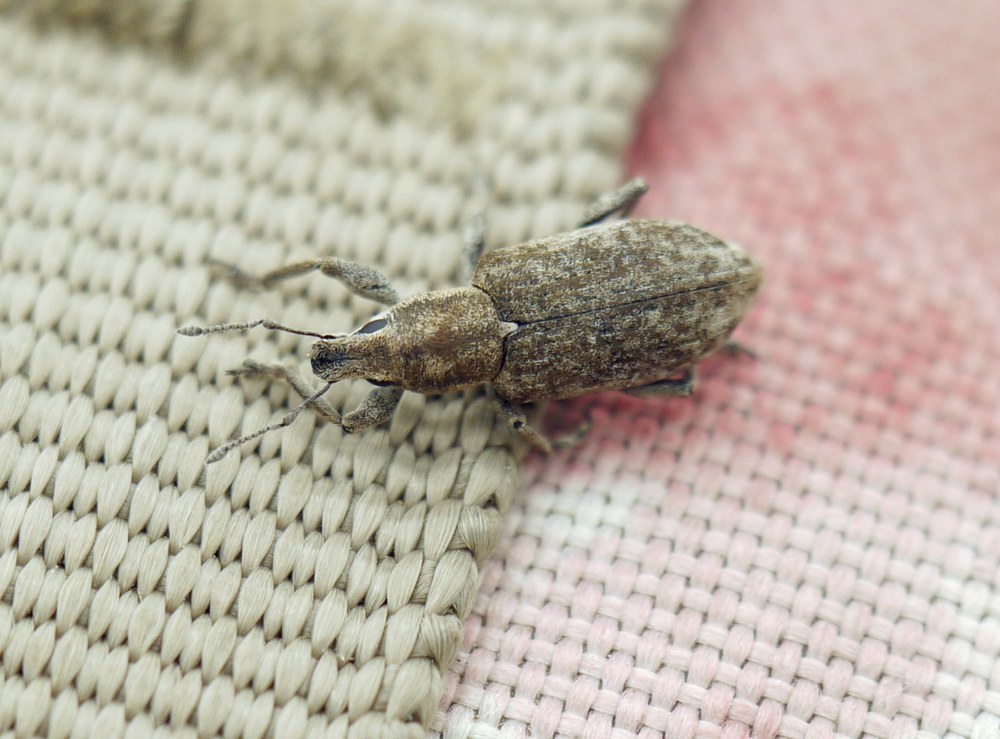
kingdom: Animalia
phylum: Arthropoda
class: Insecta
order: Coleoptera
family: Curculionidae
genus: Tanymecus
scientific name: Tanymecus palliatus
